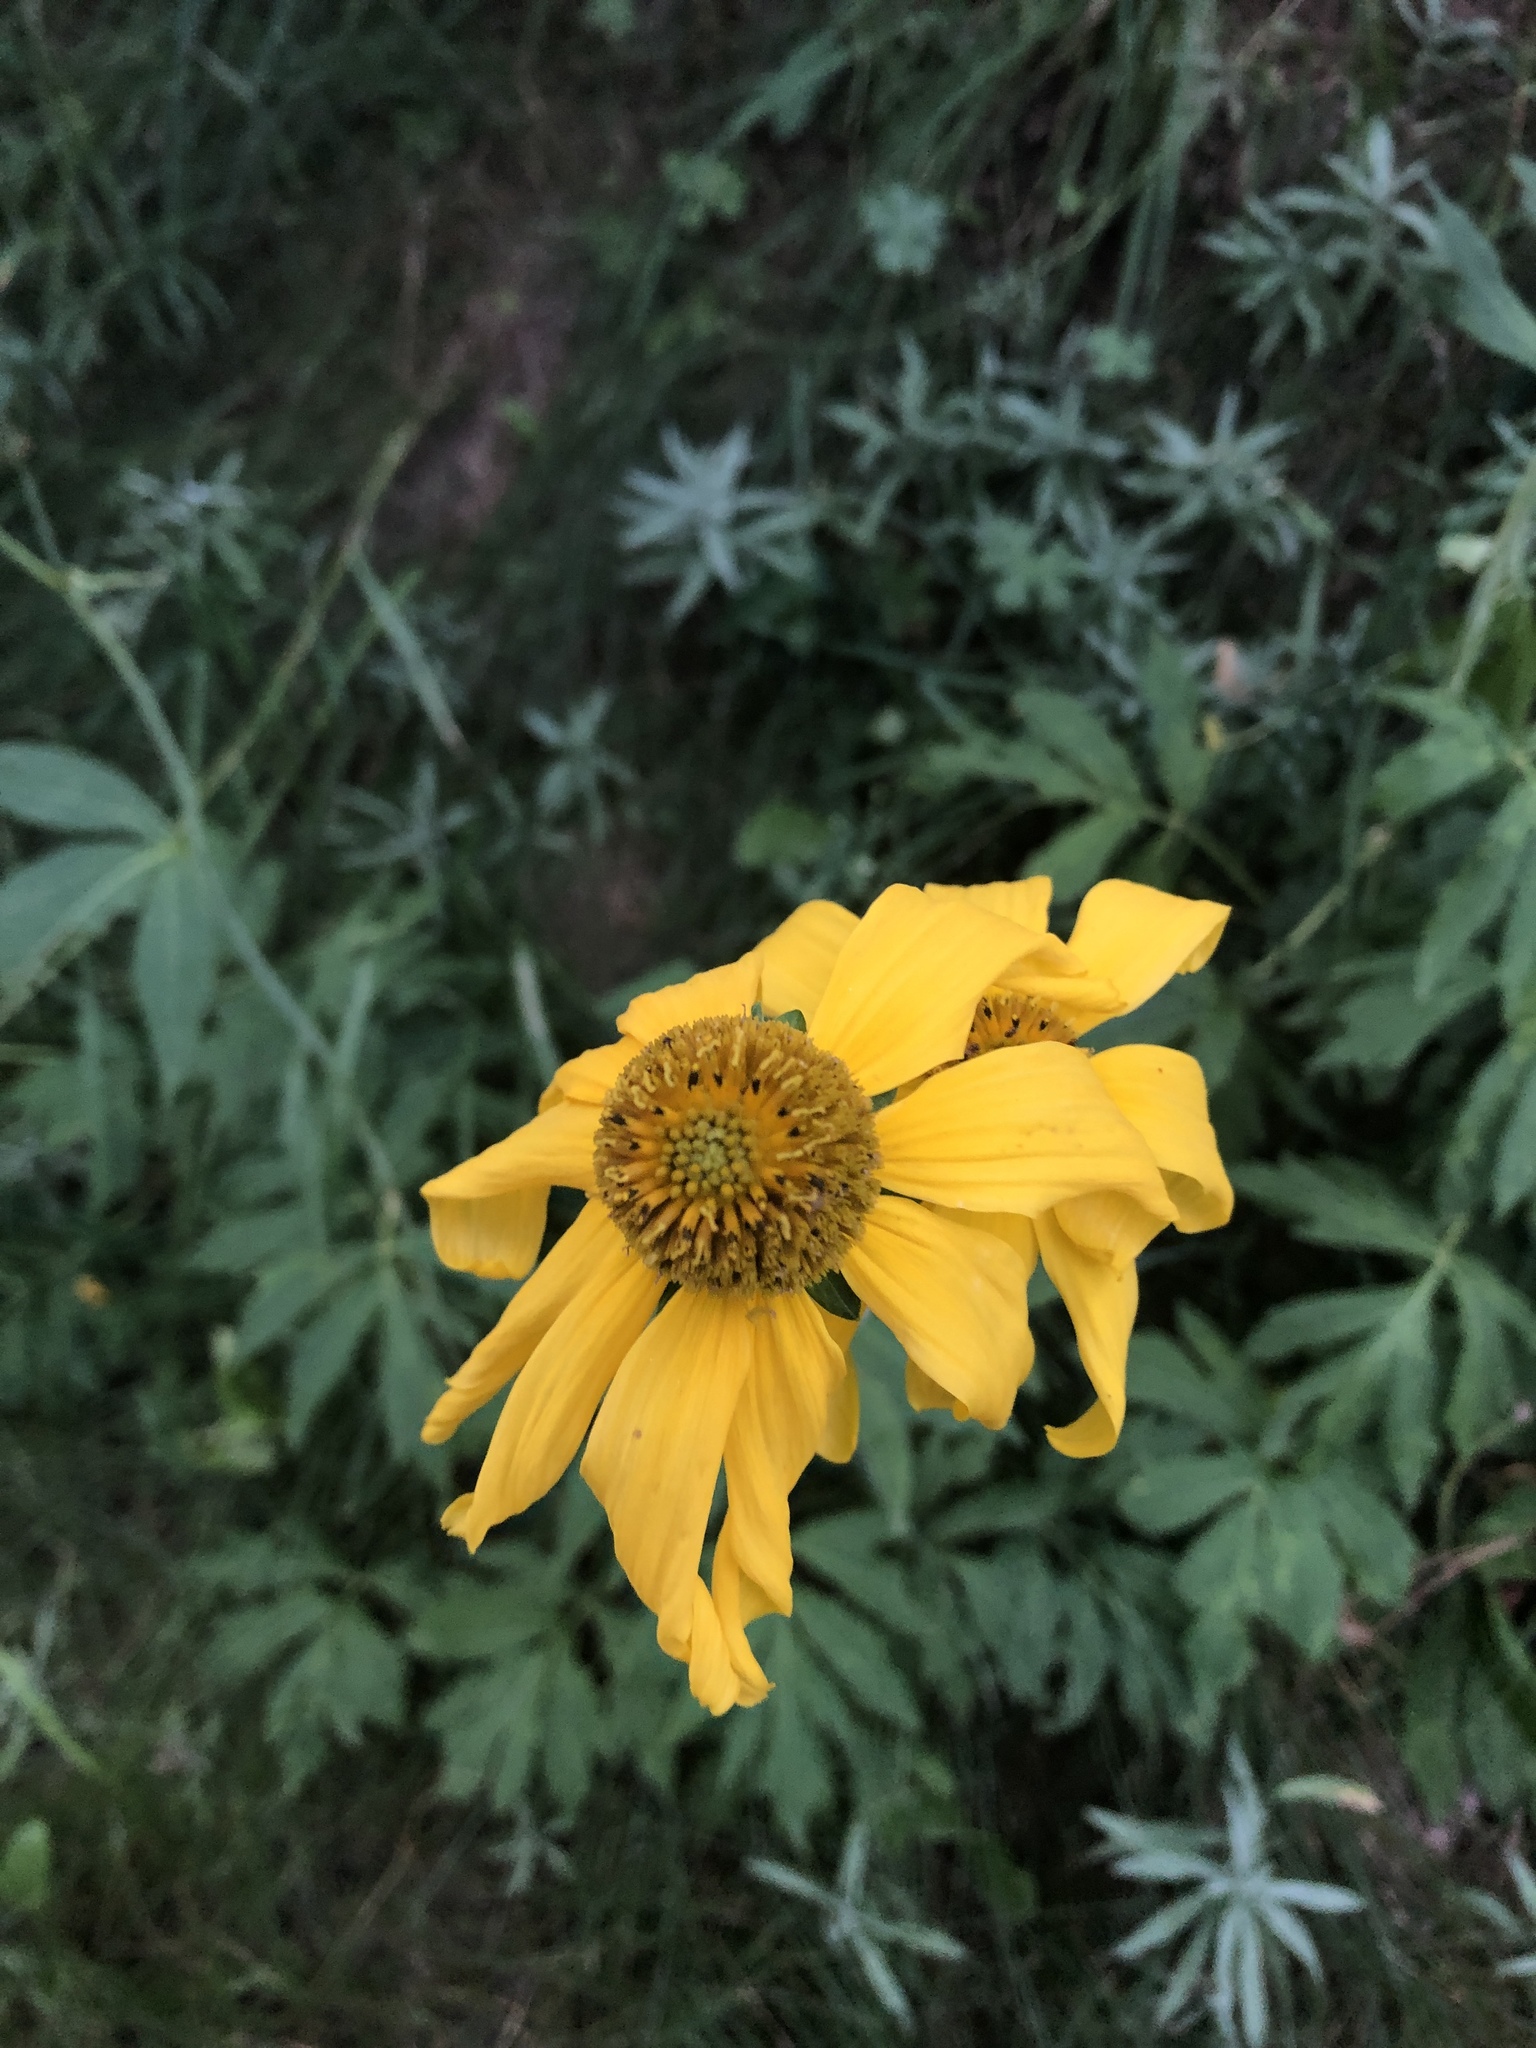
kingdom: Plantae
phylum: Tracheophyta
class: Magnoliopsida
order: Asterales
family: Asteraceae
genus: Rudbeckia
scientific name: Rudbeckia laciniata
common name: Coneflower
